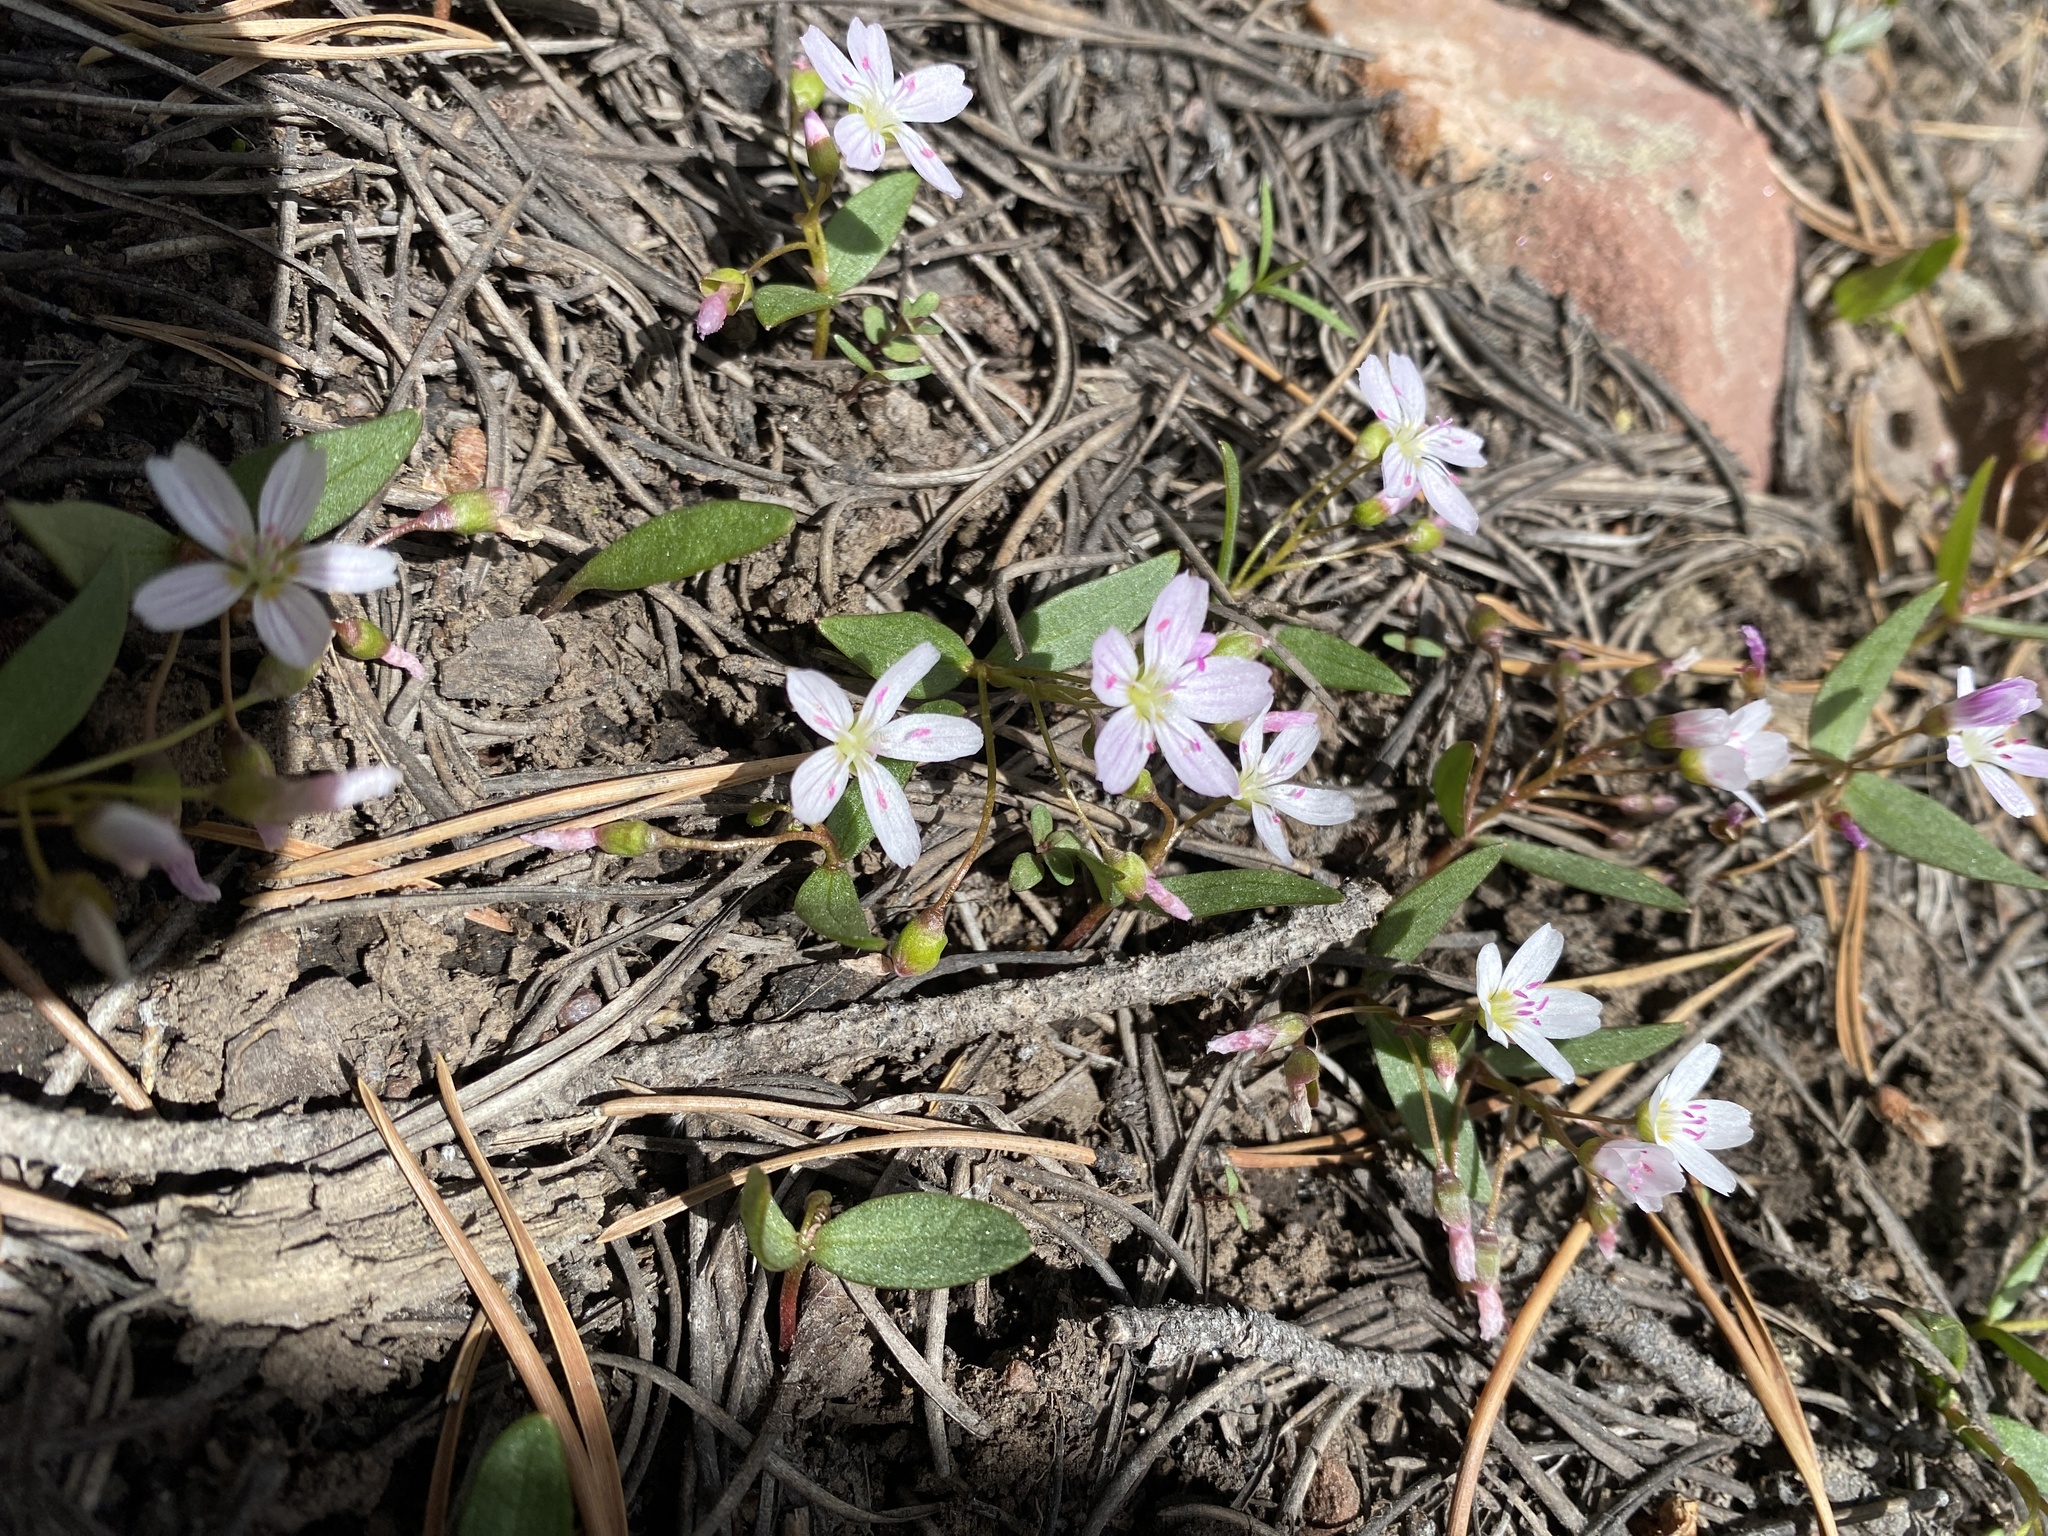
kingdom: Plantae
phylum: Tracheophyta
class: Magnoliopsida
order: Caryophyllales
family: Montiaceae
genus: Claytonia
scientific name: Claytonia lanceolata
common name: Western spring-beauty
